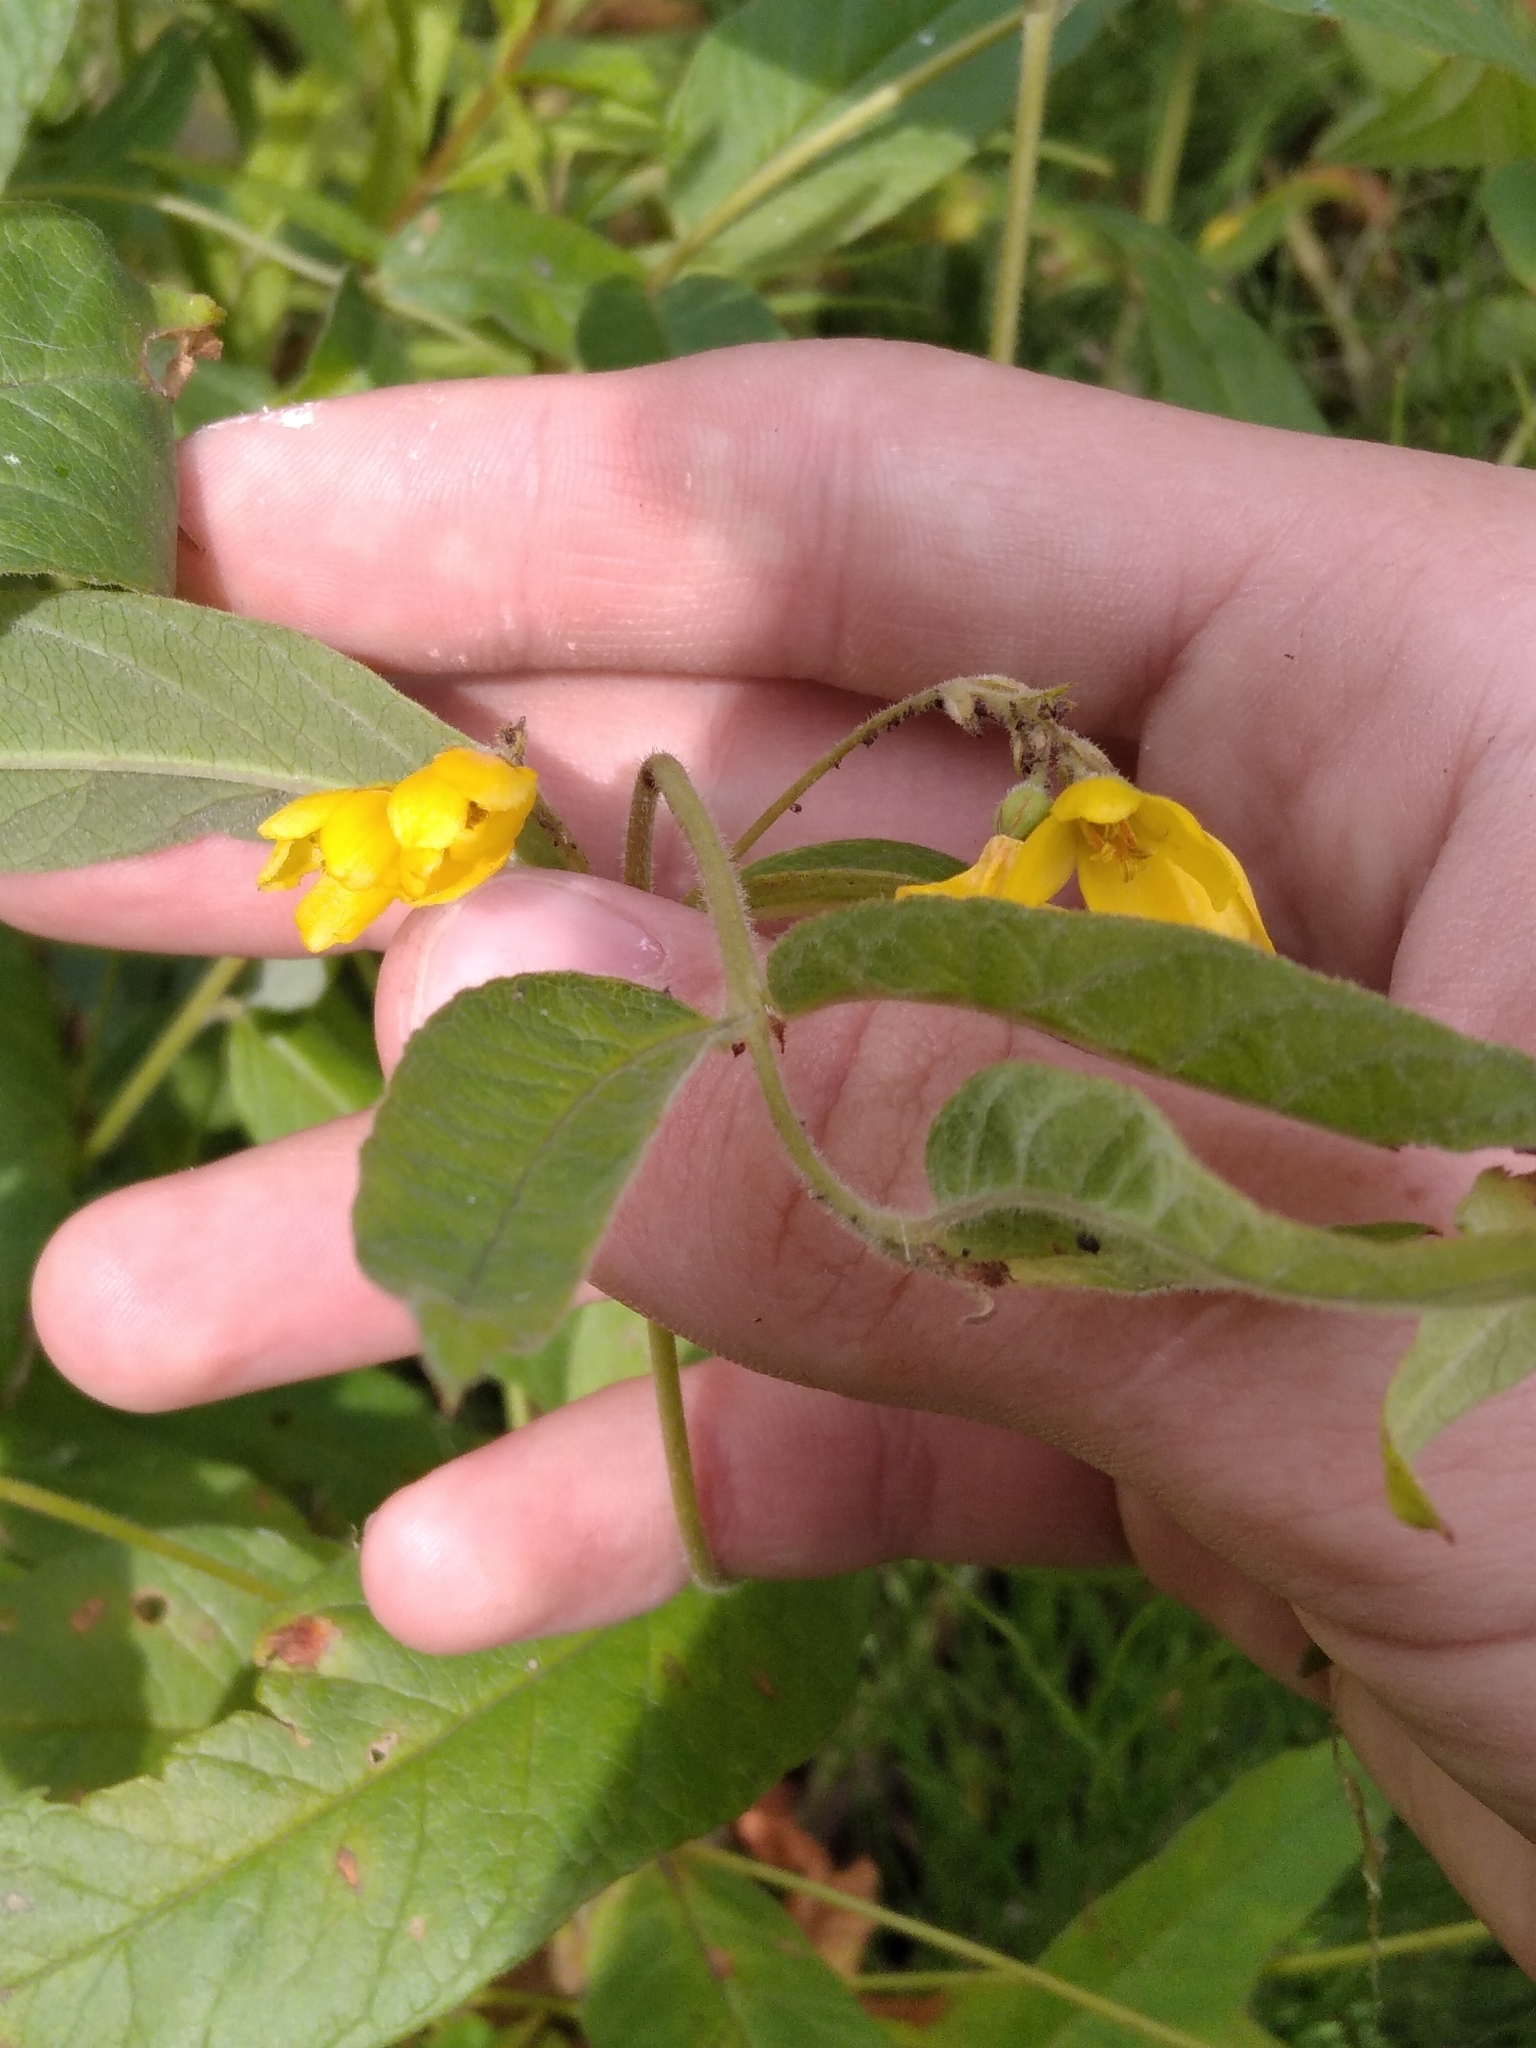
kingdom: Plantae
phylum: Tracheophyta
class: Magnoliopsida
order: Ericales
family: Primulaceae
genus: Lysimachia
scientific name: Lysimachia vulgaris
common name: Yellow loosestrife
